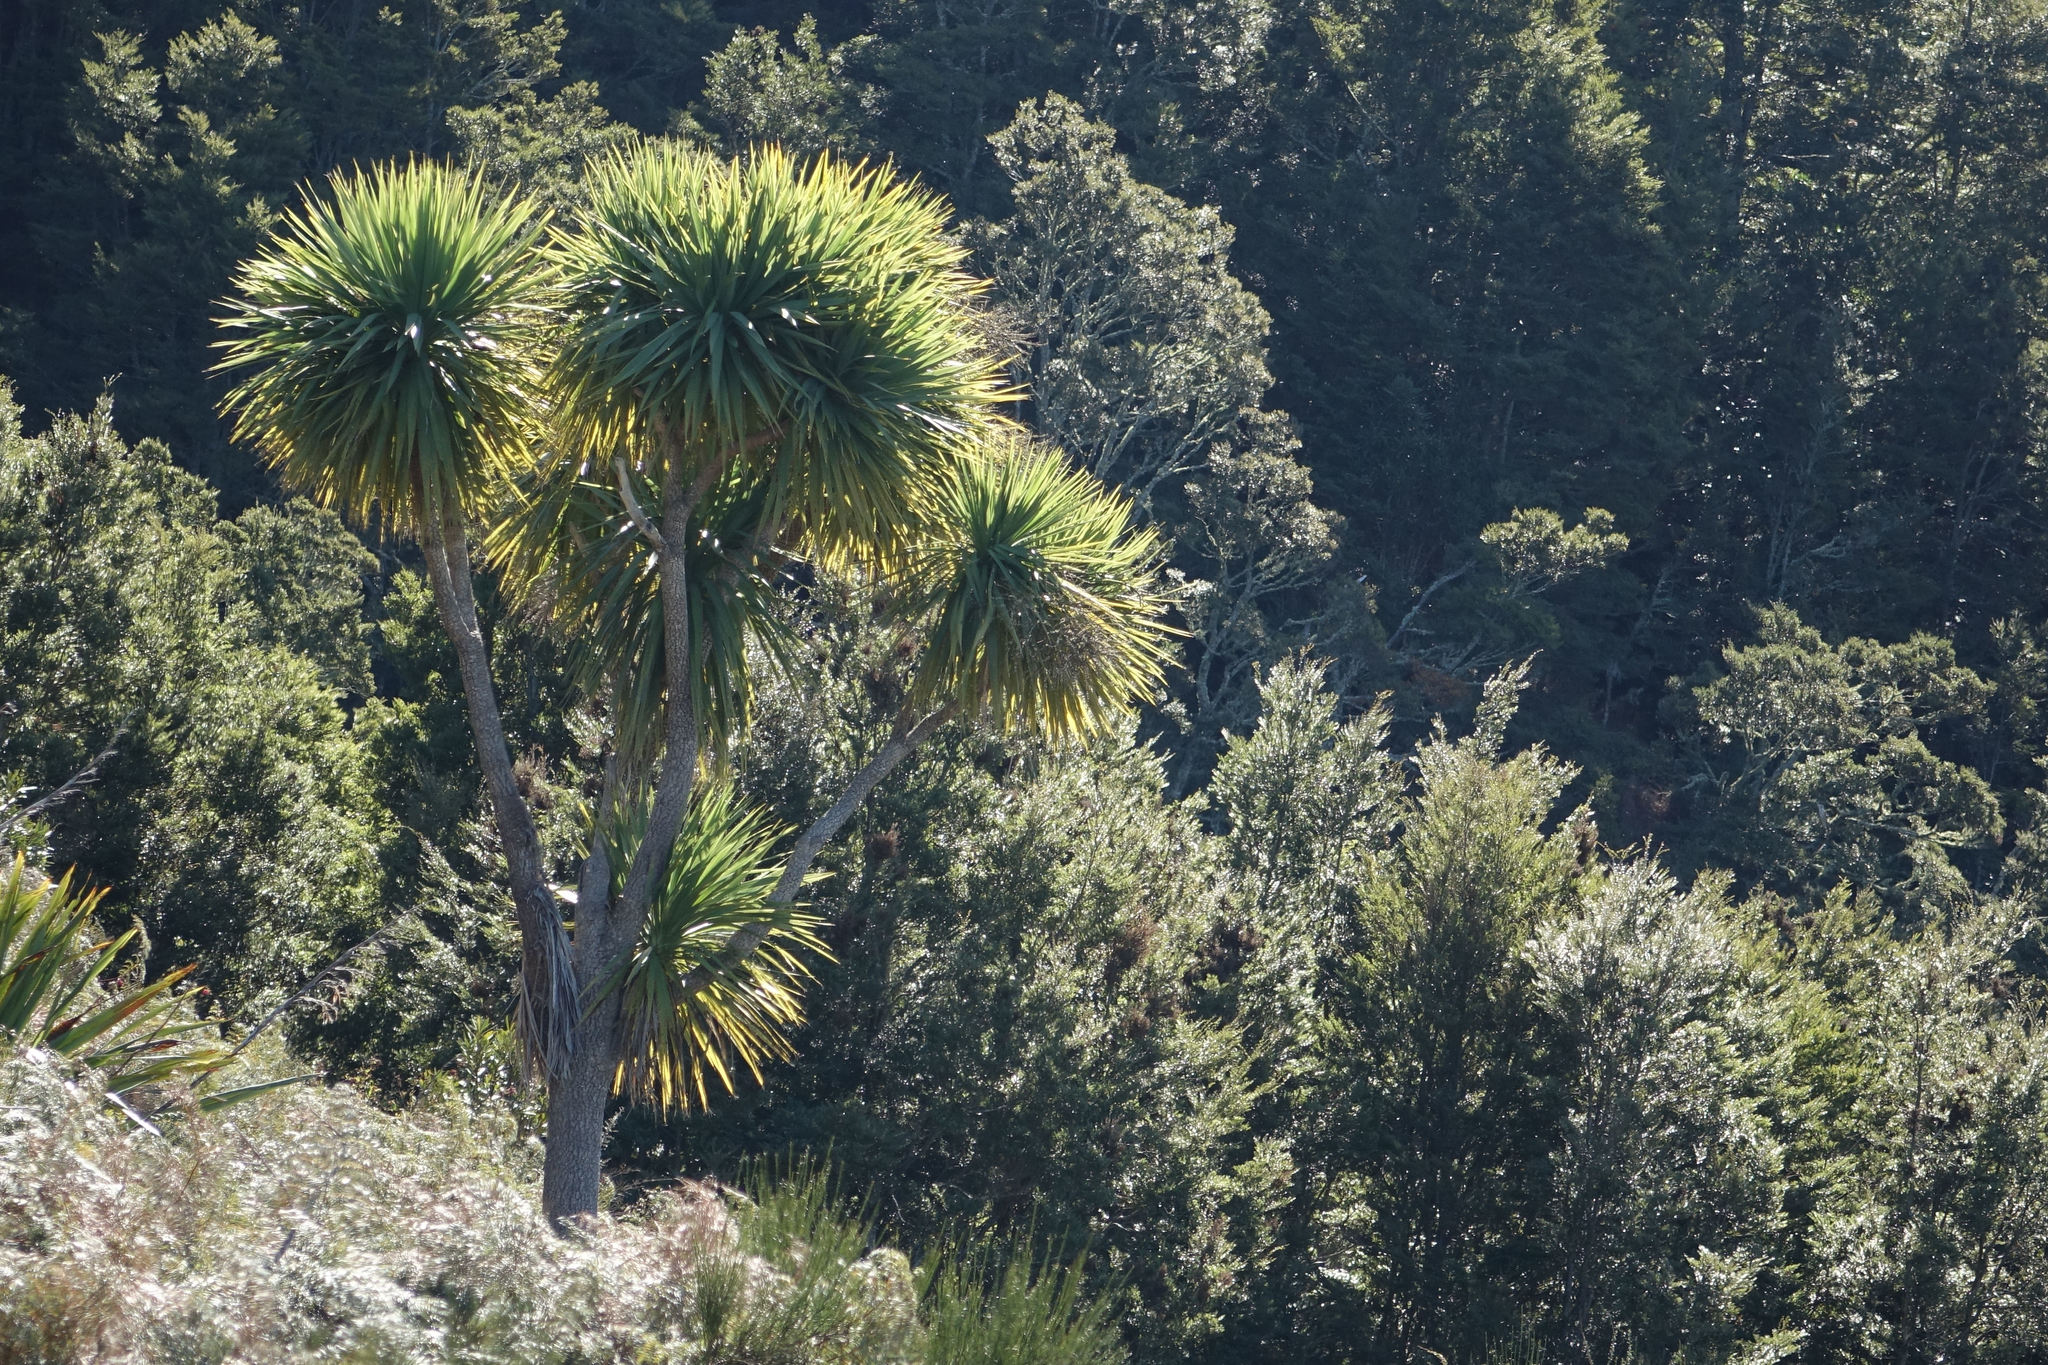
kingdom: Plantae
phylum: Tracheophyta
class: Liliopsida
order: Asparagales
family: Asparagaceae
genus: Cordyline
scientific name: Cordyline australis
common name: Cabbage-palm
